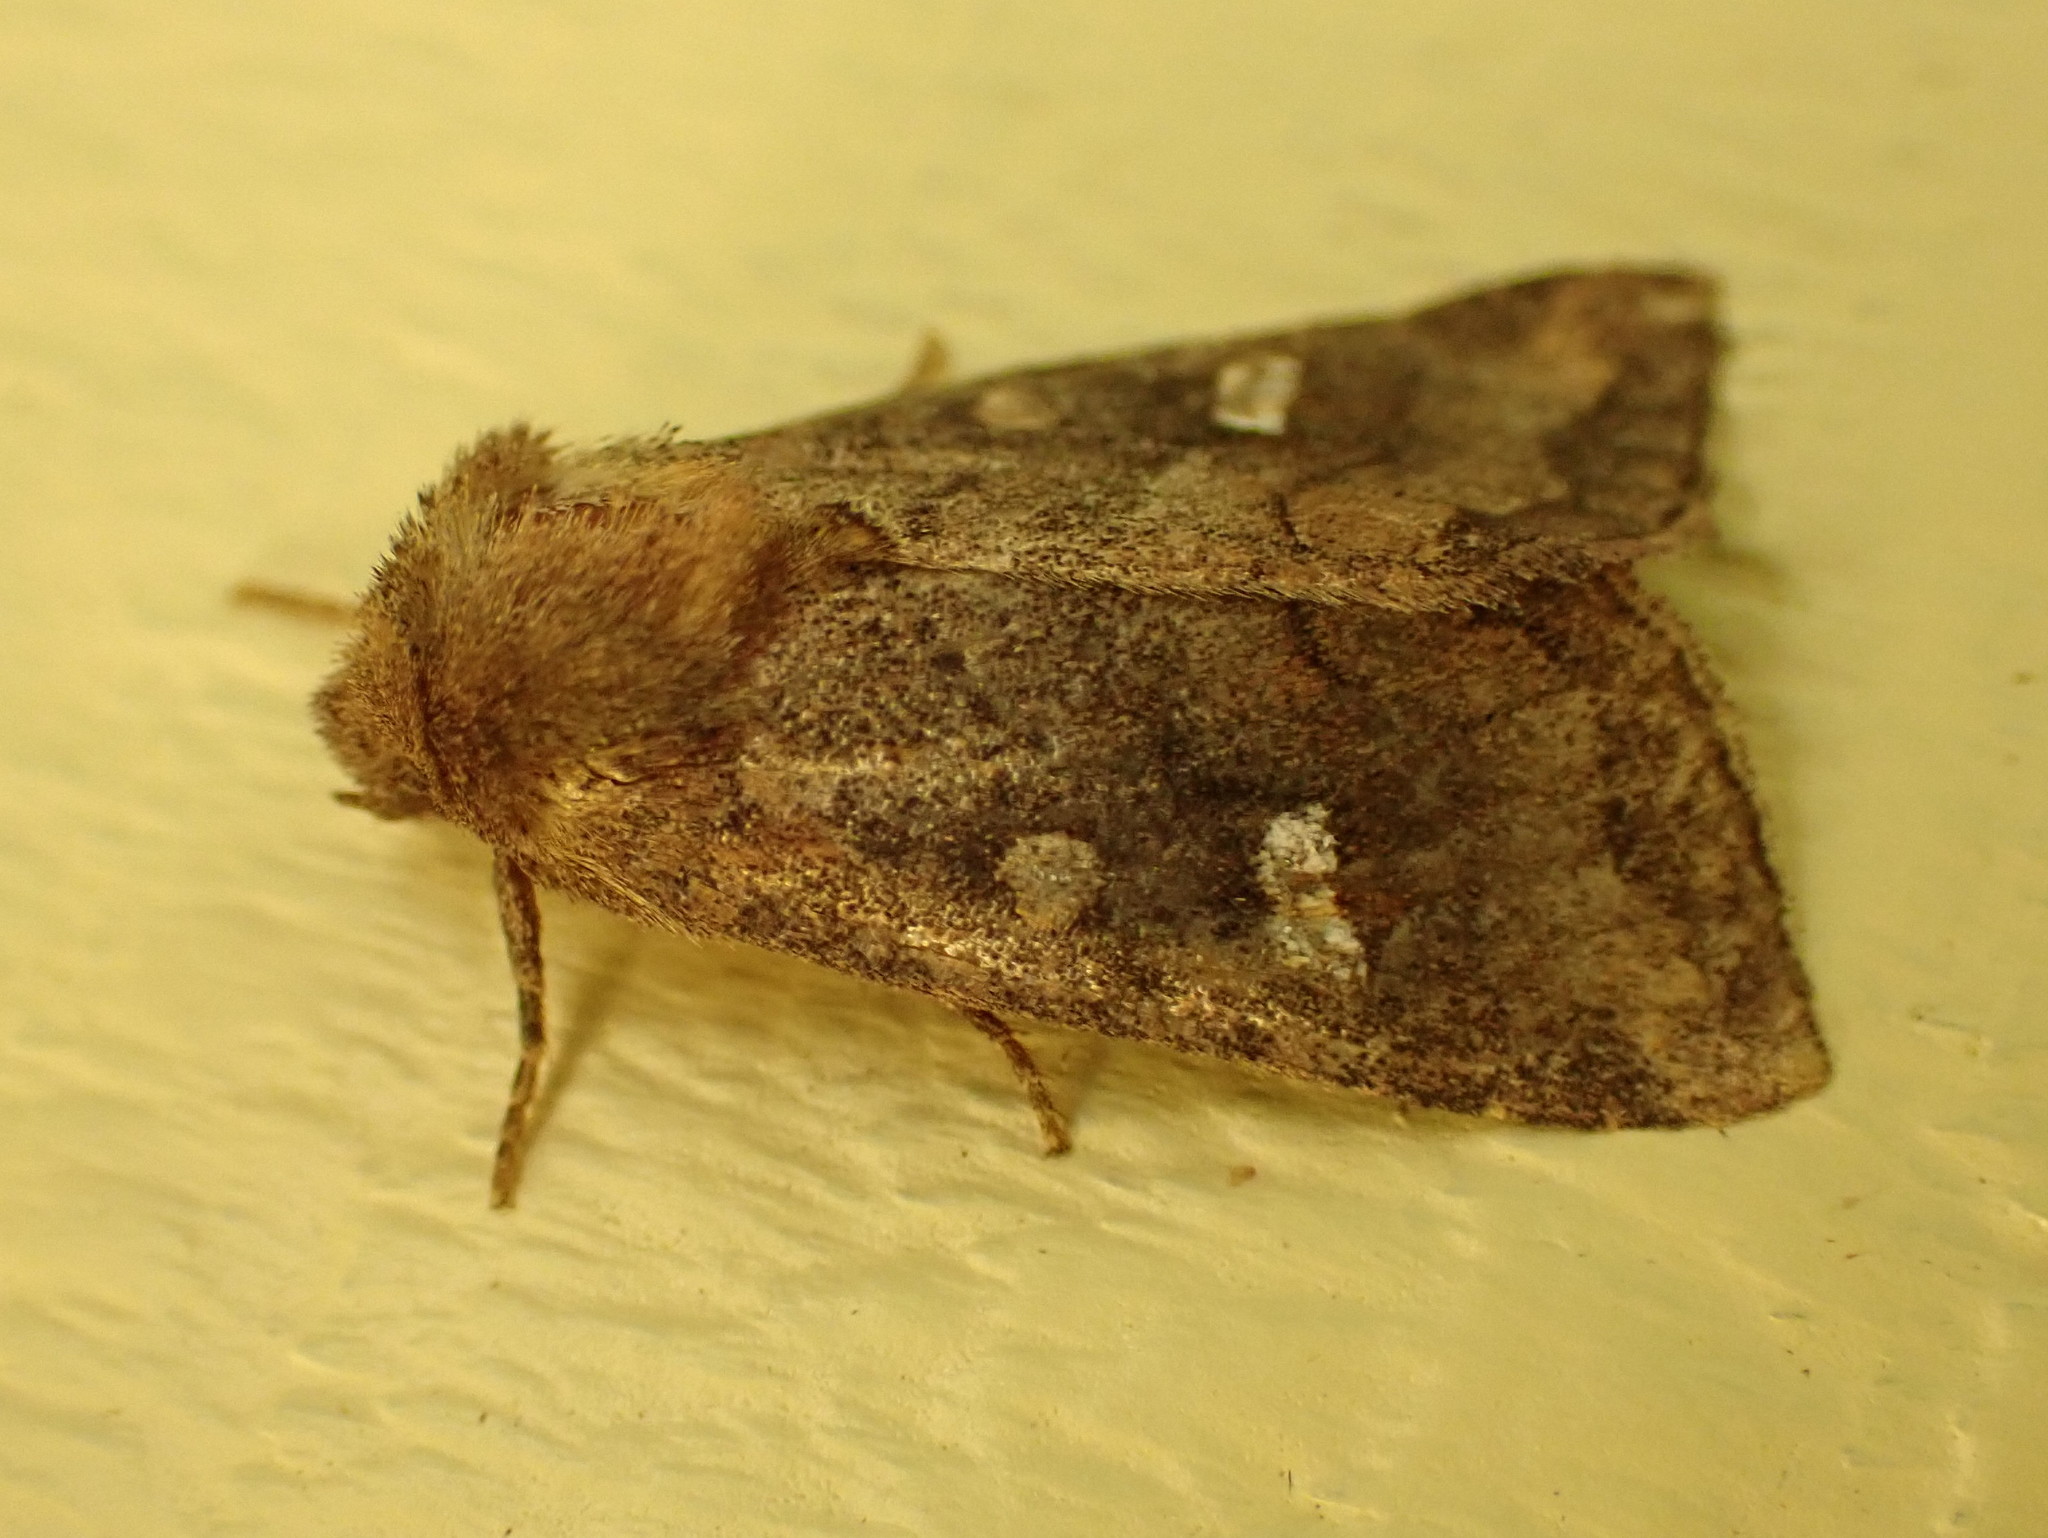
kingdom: Animalia
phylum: Arthropoda
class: Insecta
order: Lepidoptera
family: Noctuidae
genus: Tricholita
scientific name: Tricholita signata
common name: Signate quaker
